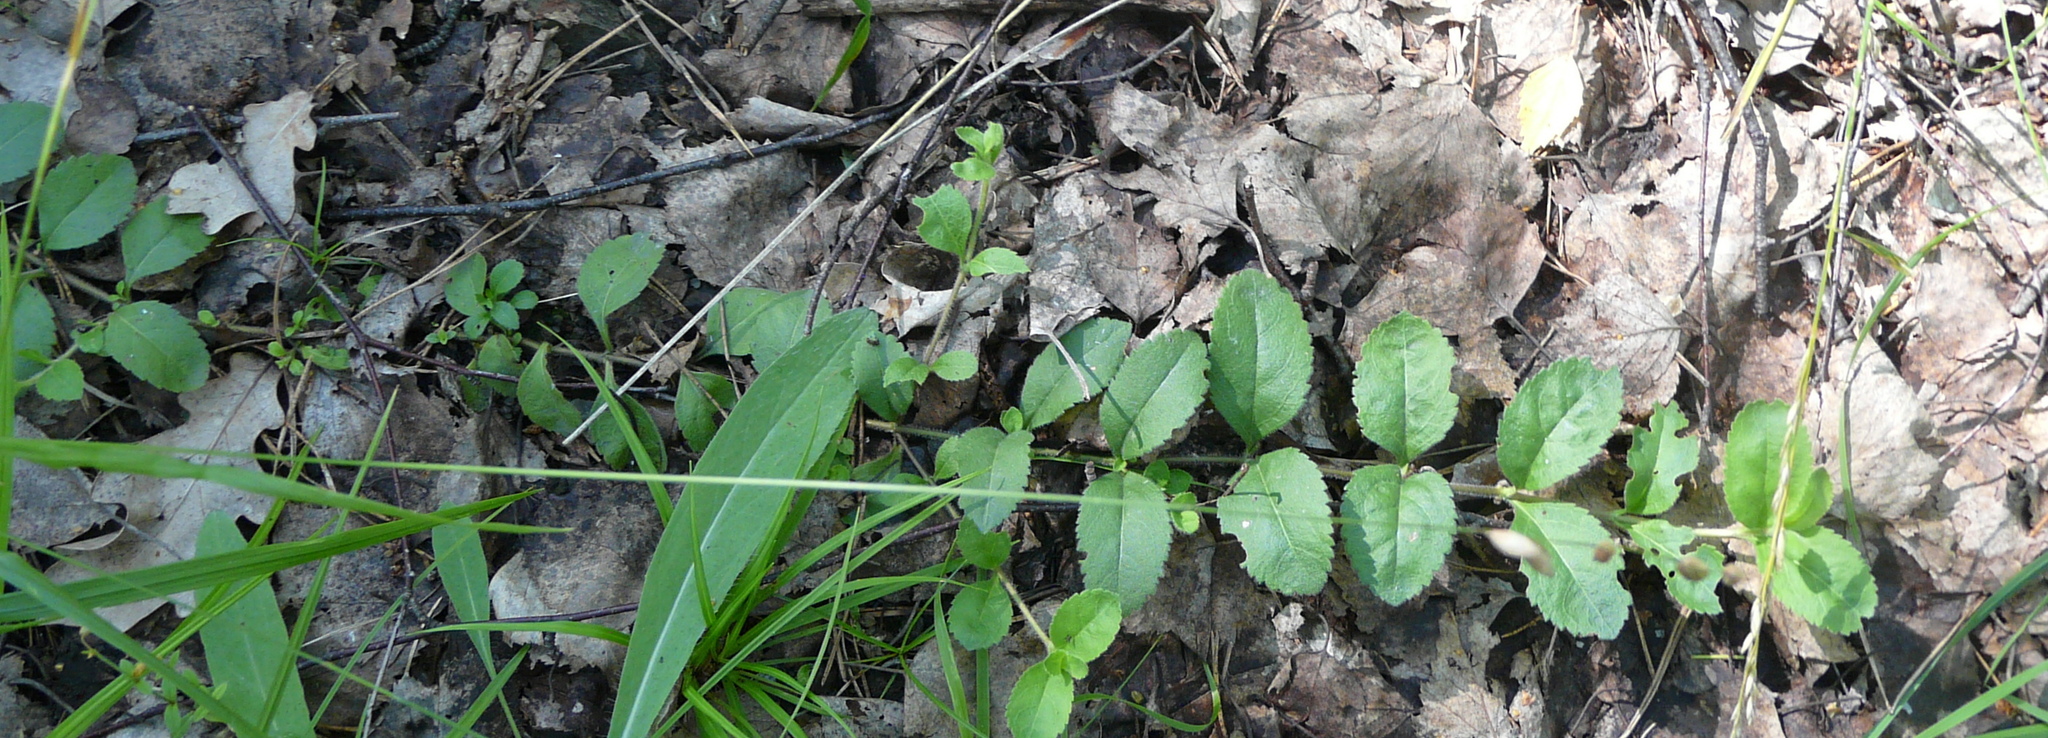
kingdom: Plantae
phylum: Tracheophyta
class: Magnoliopsida
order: Lamiales
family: Plantaginaceae
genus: Veronica
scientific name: Veronica officinalis
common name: Common speedwell
